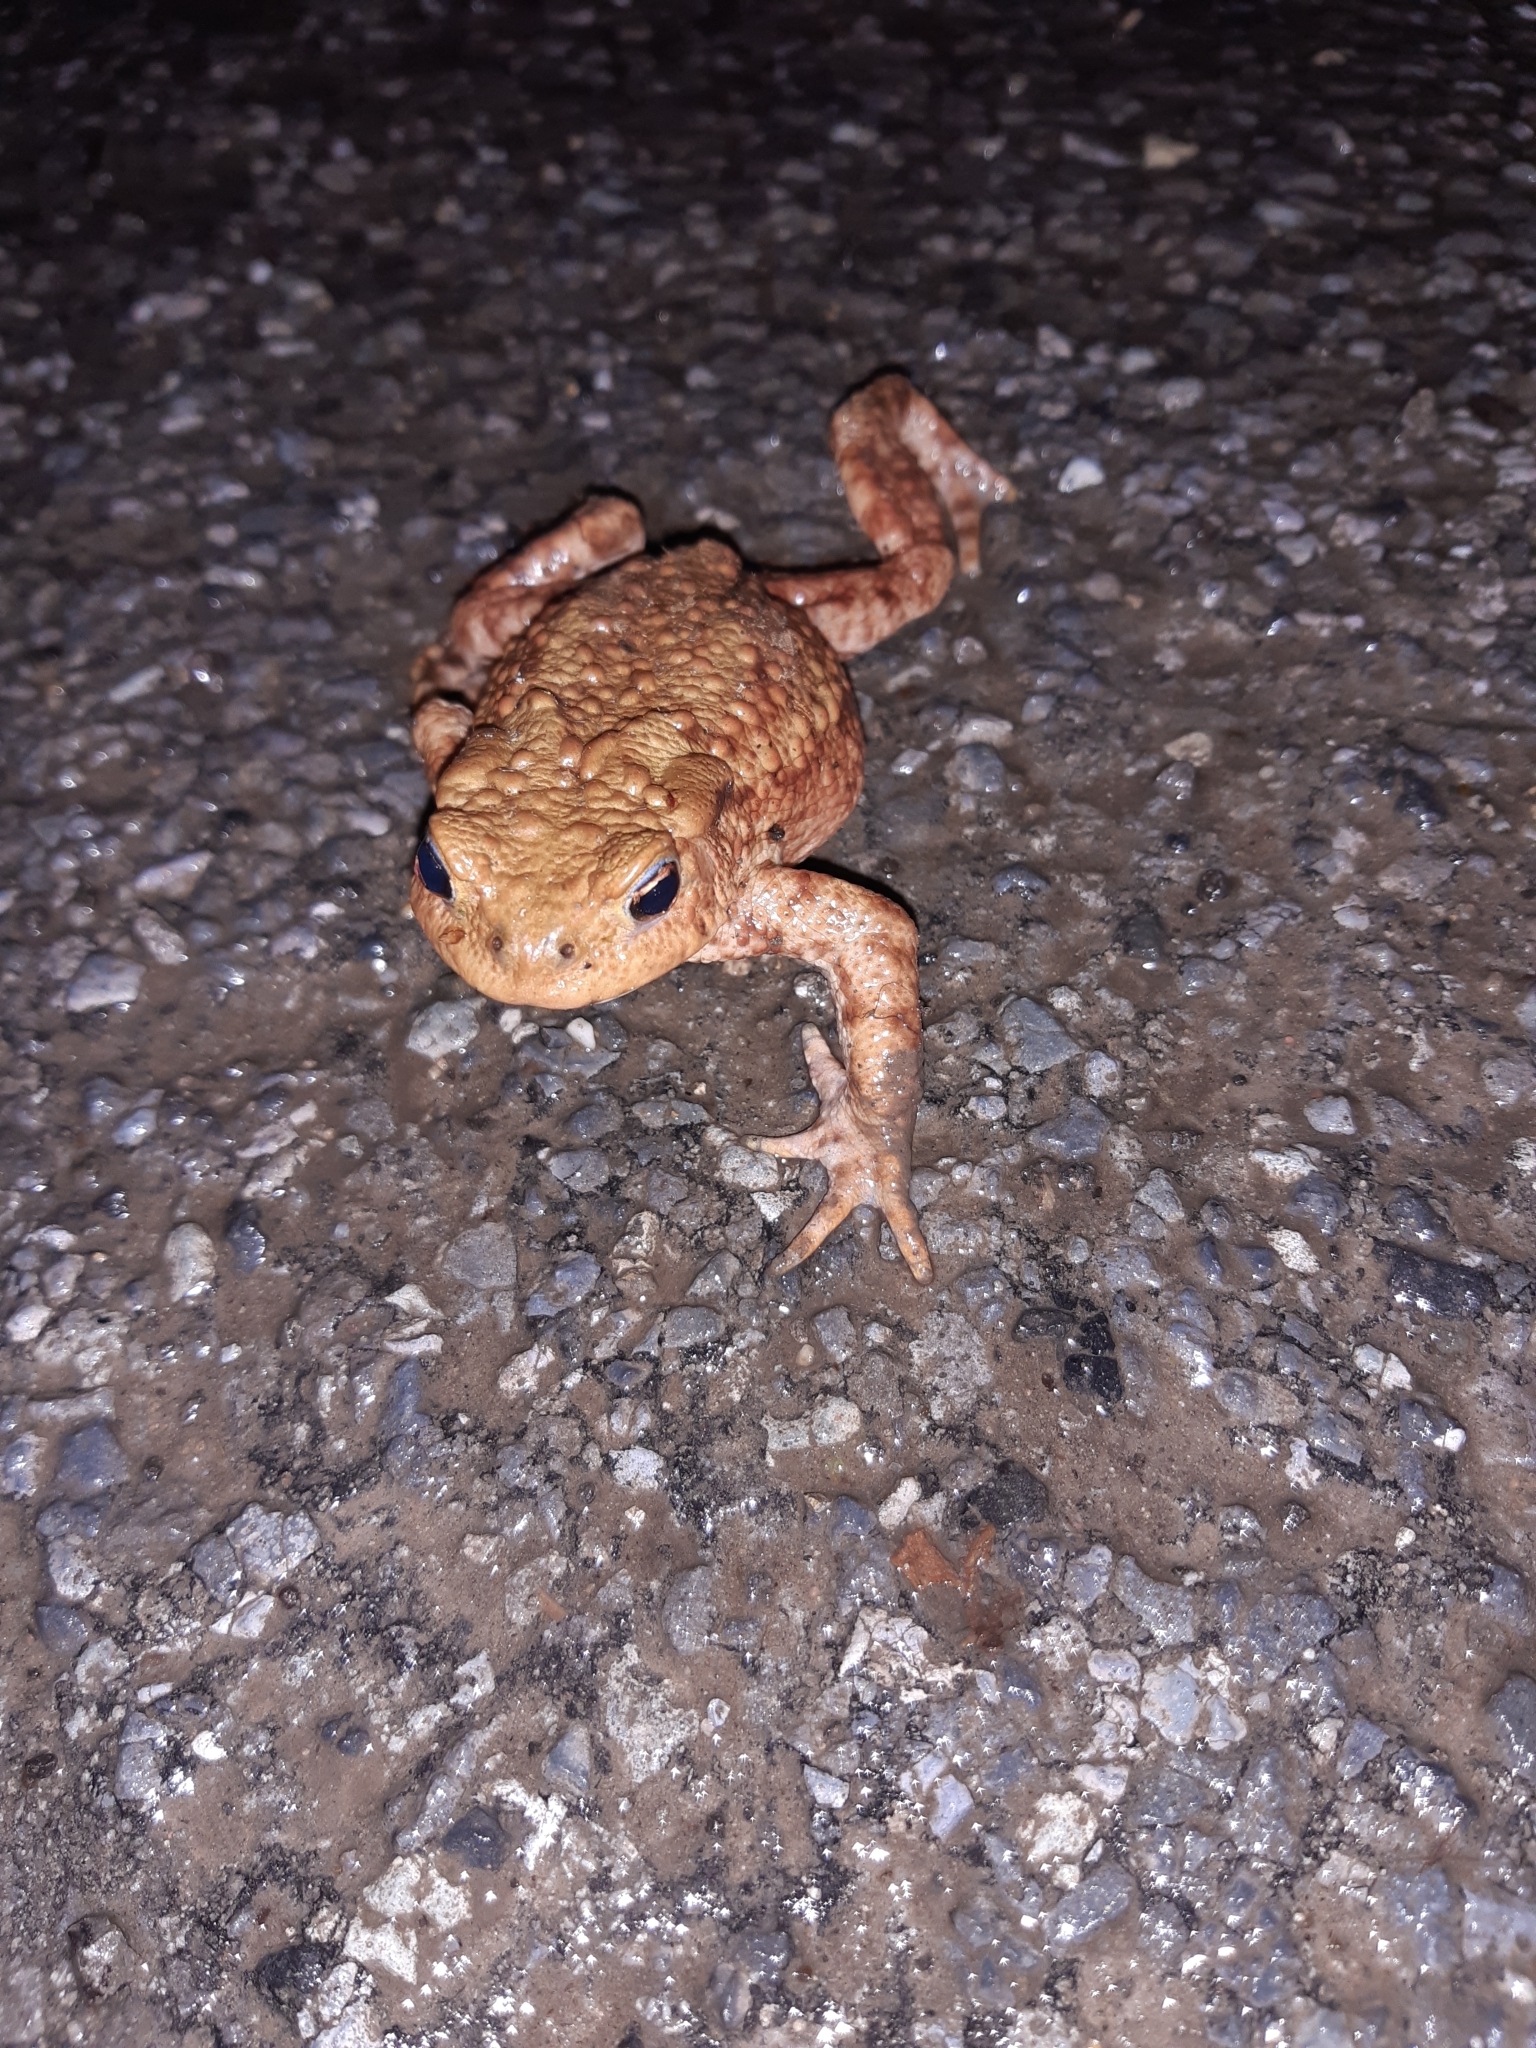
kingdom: Animalia
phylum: Chordata
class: Amphibia
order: Anura
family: Bufonidae
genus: Bufo
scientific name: Bufo bufo
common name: Common toad
